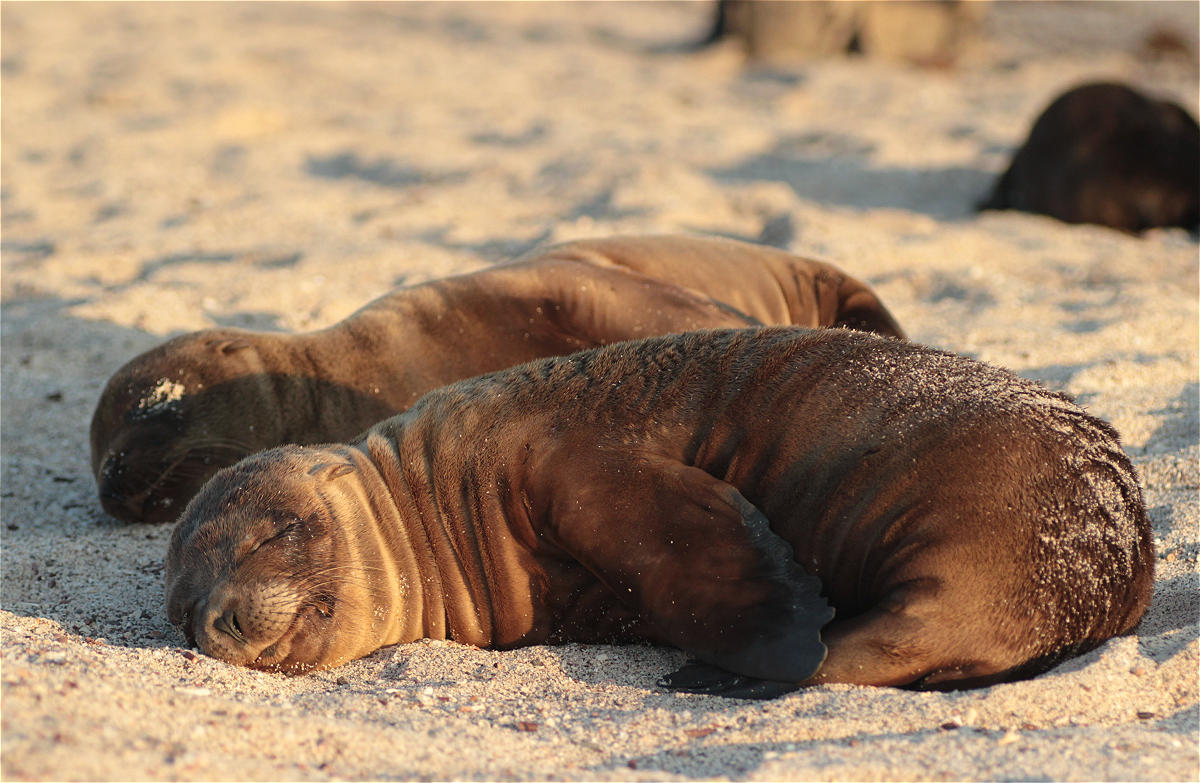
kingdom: Animalia
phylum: Chordata
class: Mammalia
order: Carnivora
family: Otariidae
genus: Zalophus
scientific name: Zalophus wollebaeki
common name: Galapagos sea lion
